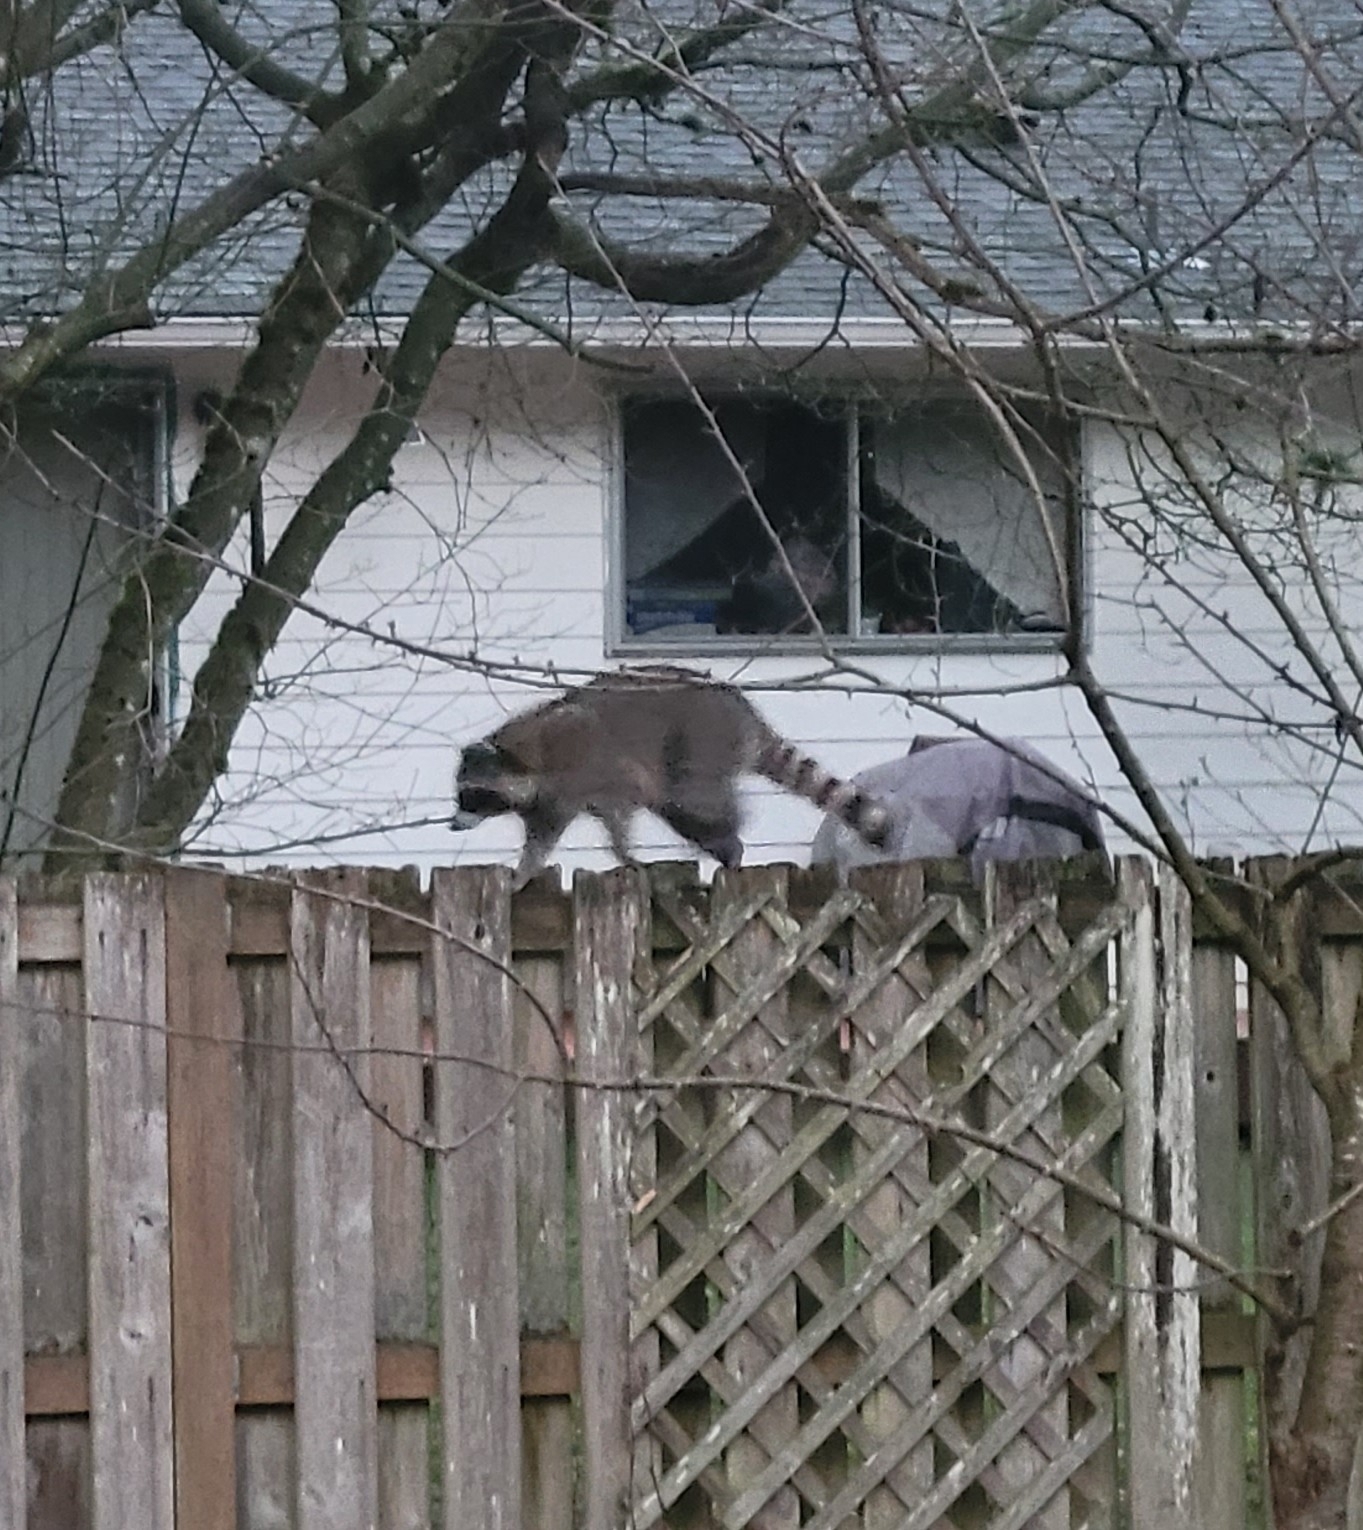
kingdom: Animalia
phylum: Chordata
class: Mammalia
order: Carnivora
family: Procyonidae
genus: Procyon
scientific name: Procyon lotor
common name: Raccoon
